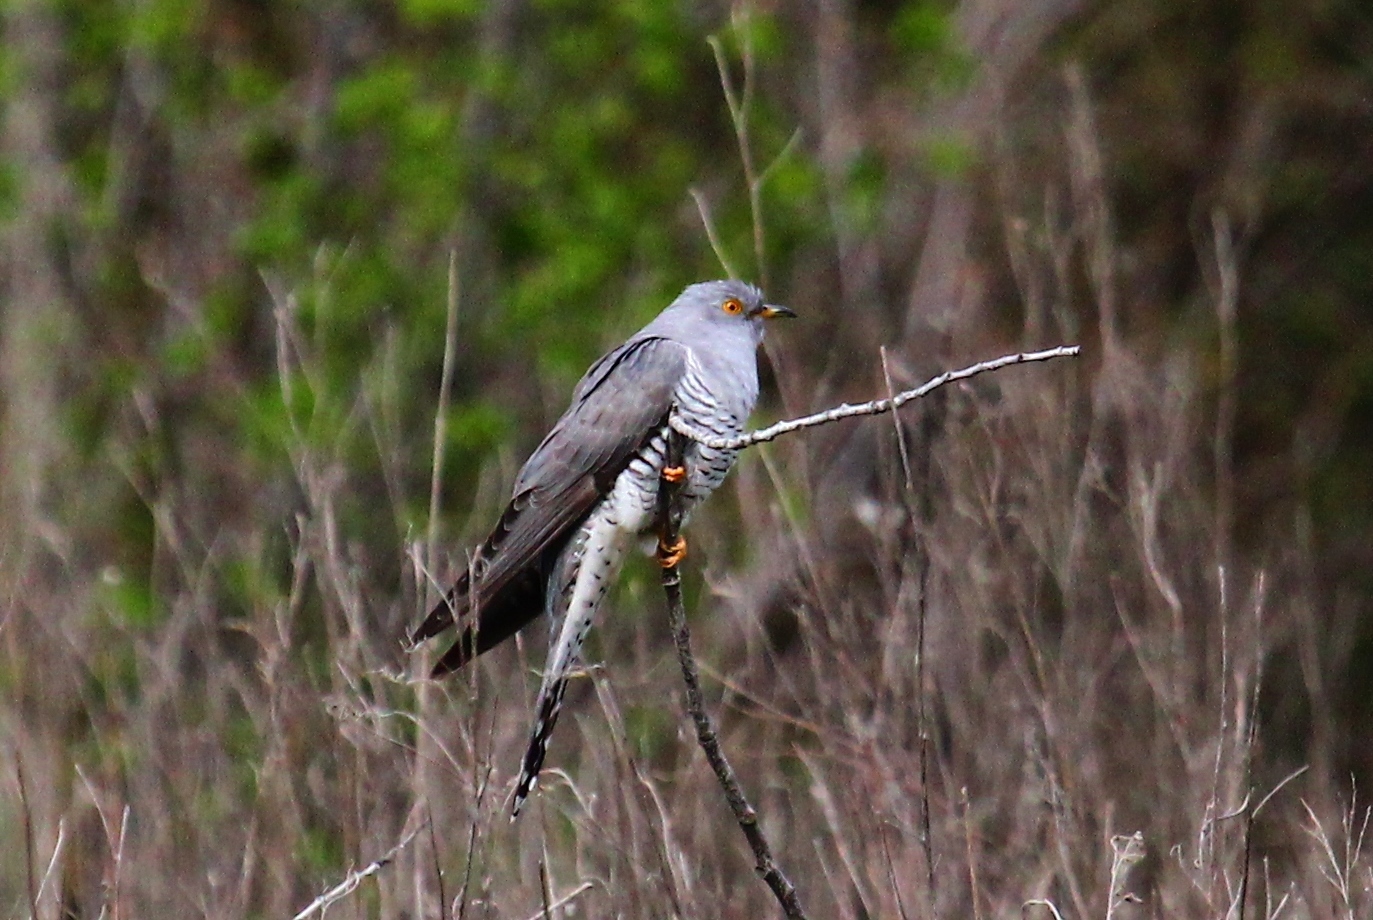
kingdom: Animalia
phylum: Chordata
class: Aves
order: Cuculiformes
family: Cuculidae
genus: Cuculus
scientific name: Cuculus canorus
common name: Common cuckoo
